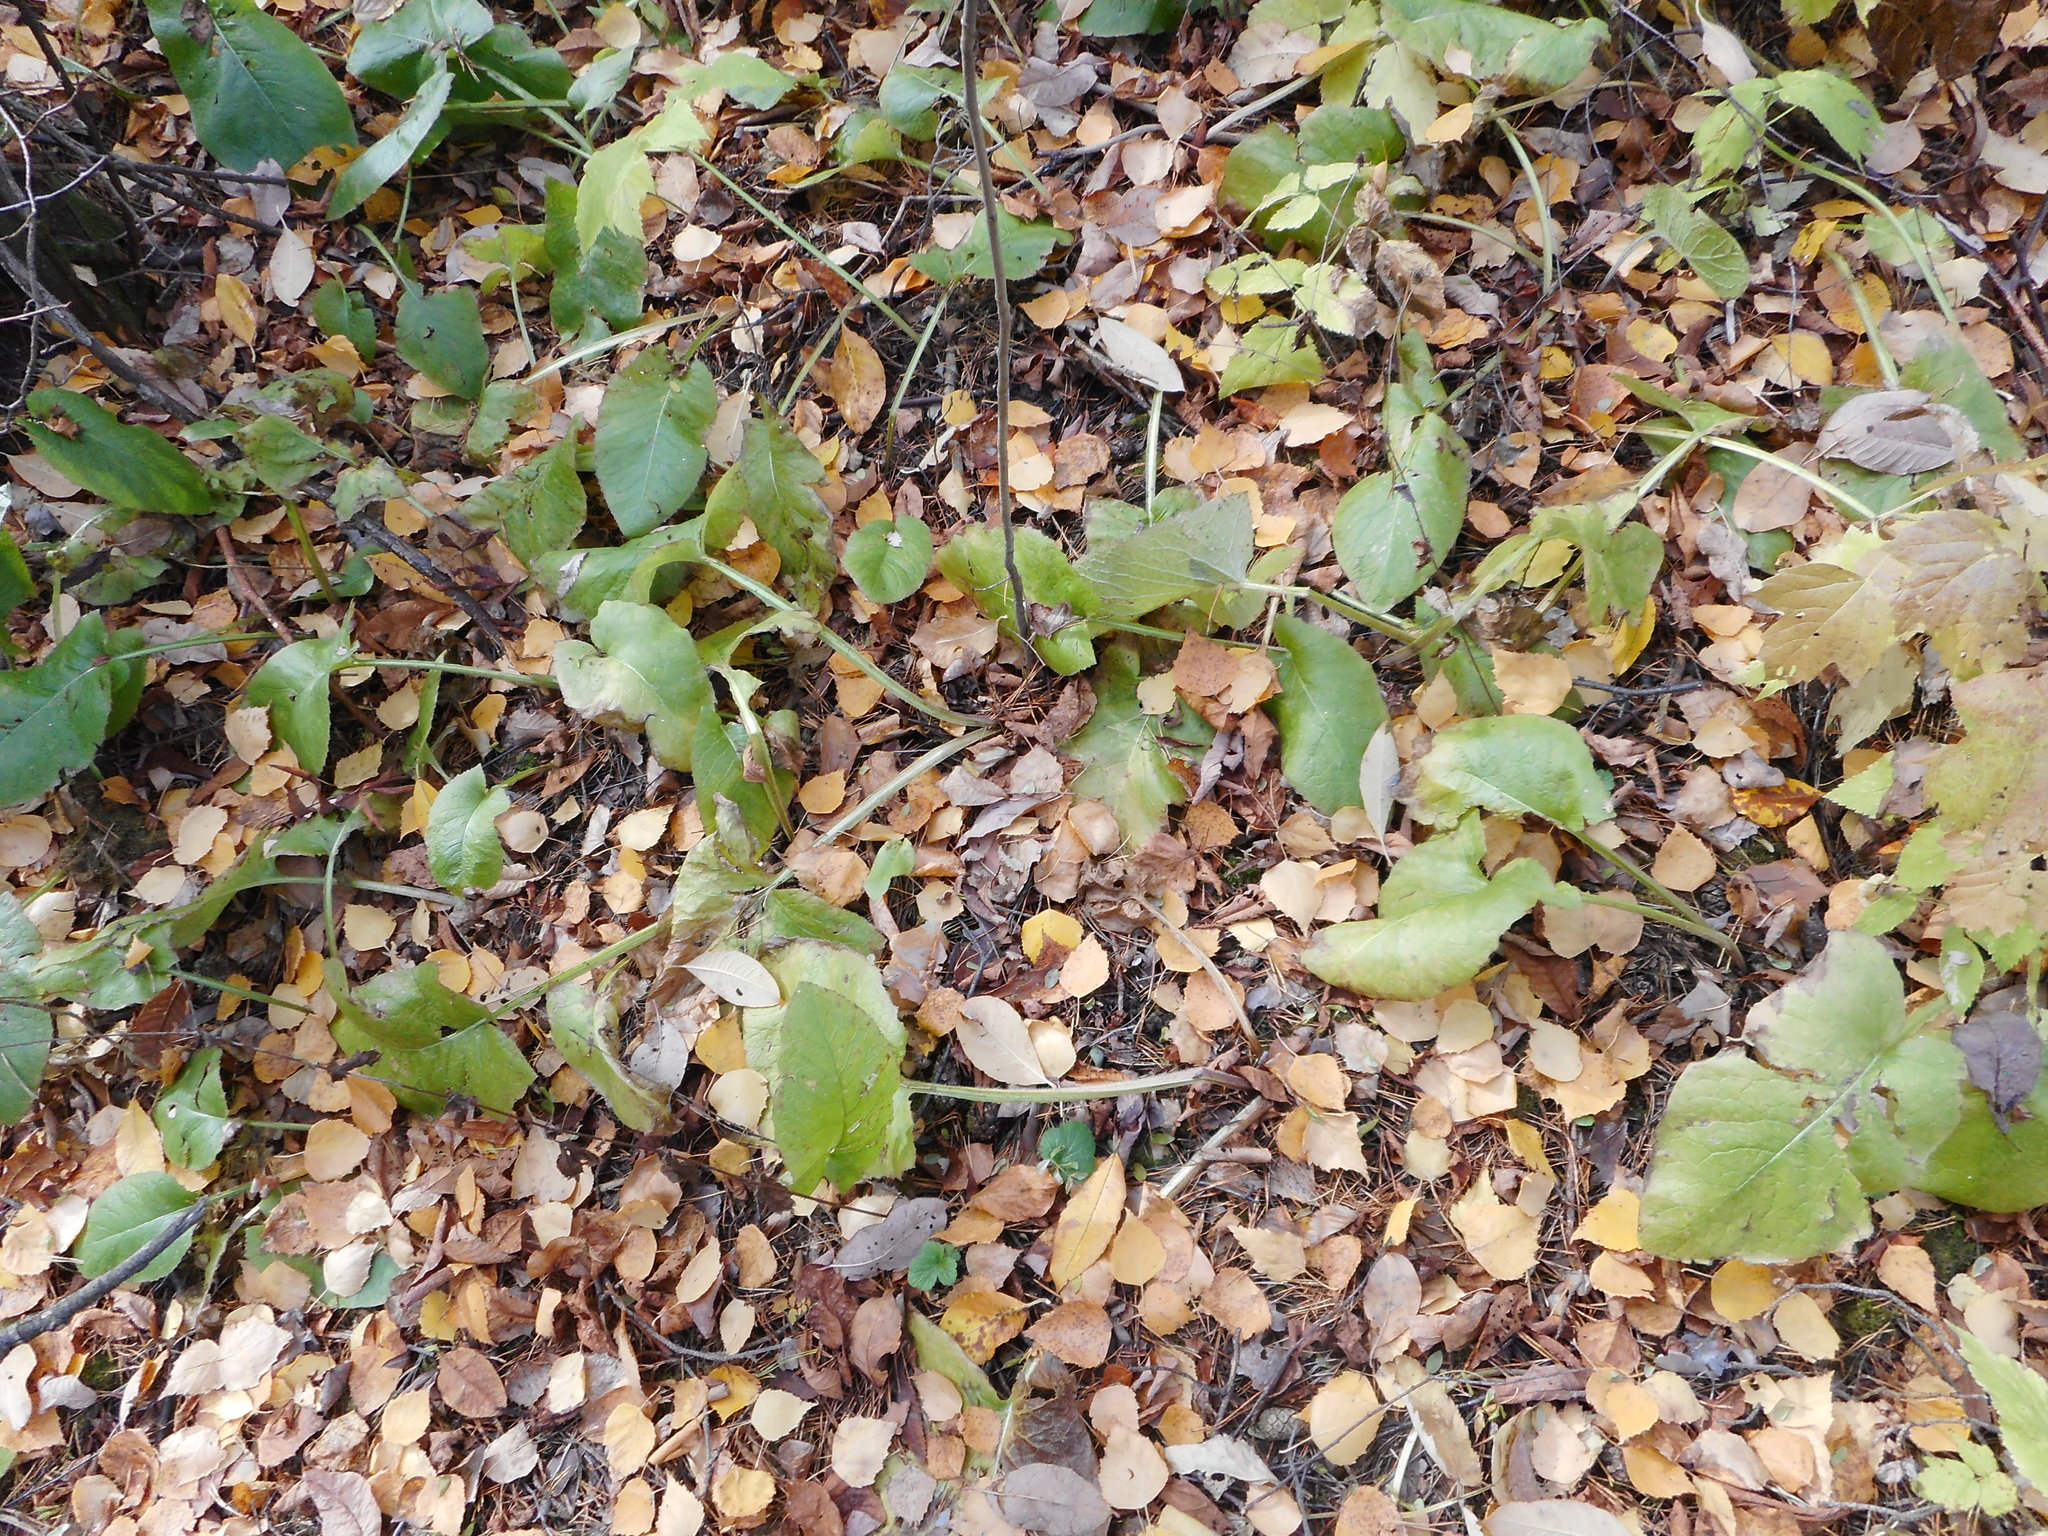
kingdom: Plantae
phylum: Tracheophyta
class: Magnoliopsida
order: Asterales
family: Asteraceae
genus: Lactuca
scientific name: Lactuca macrophylla
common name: Common blue-sow-thistle
